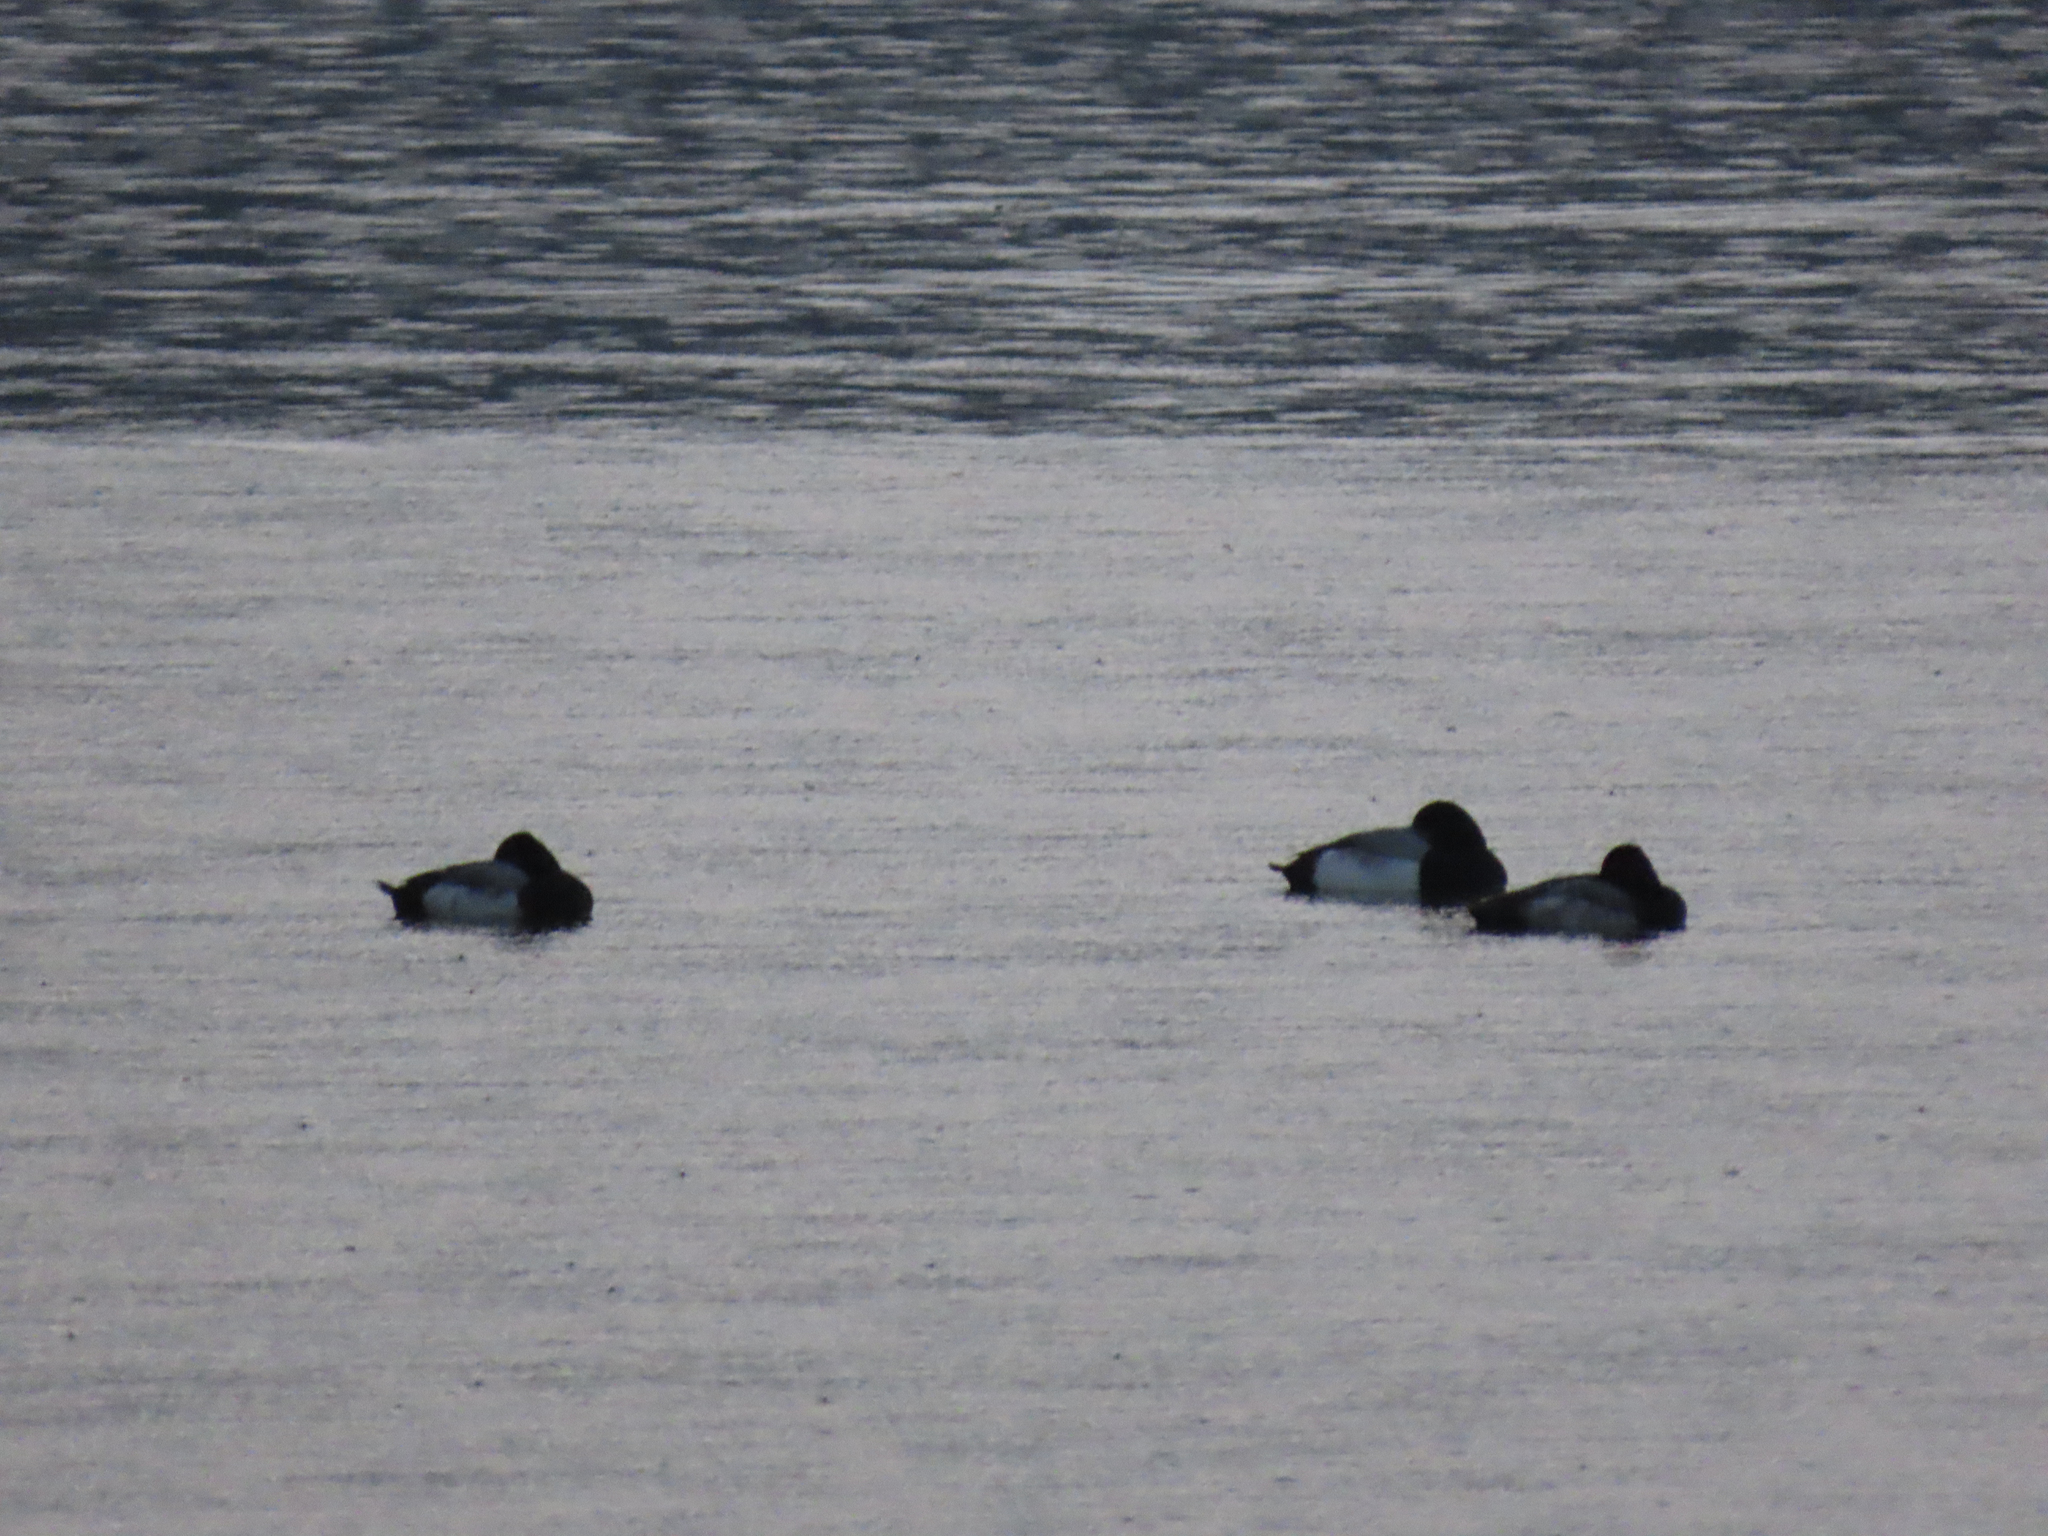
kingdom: Animalia
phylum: Chordata
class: Aves
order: Anseriformes
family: Anatidae
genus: Aythya
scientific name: Aythya affinis
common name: Lesser scaup
